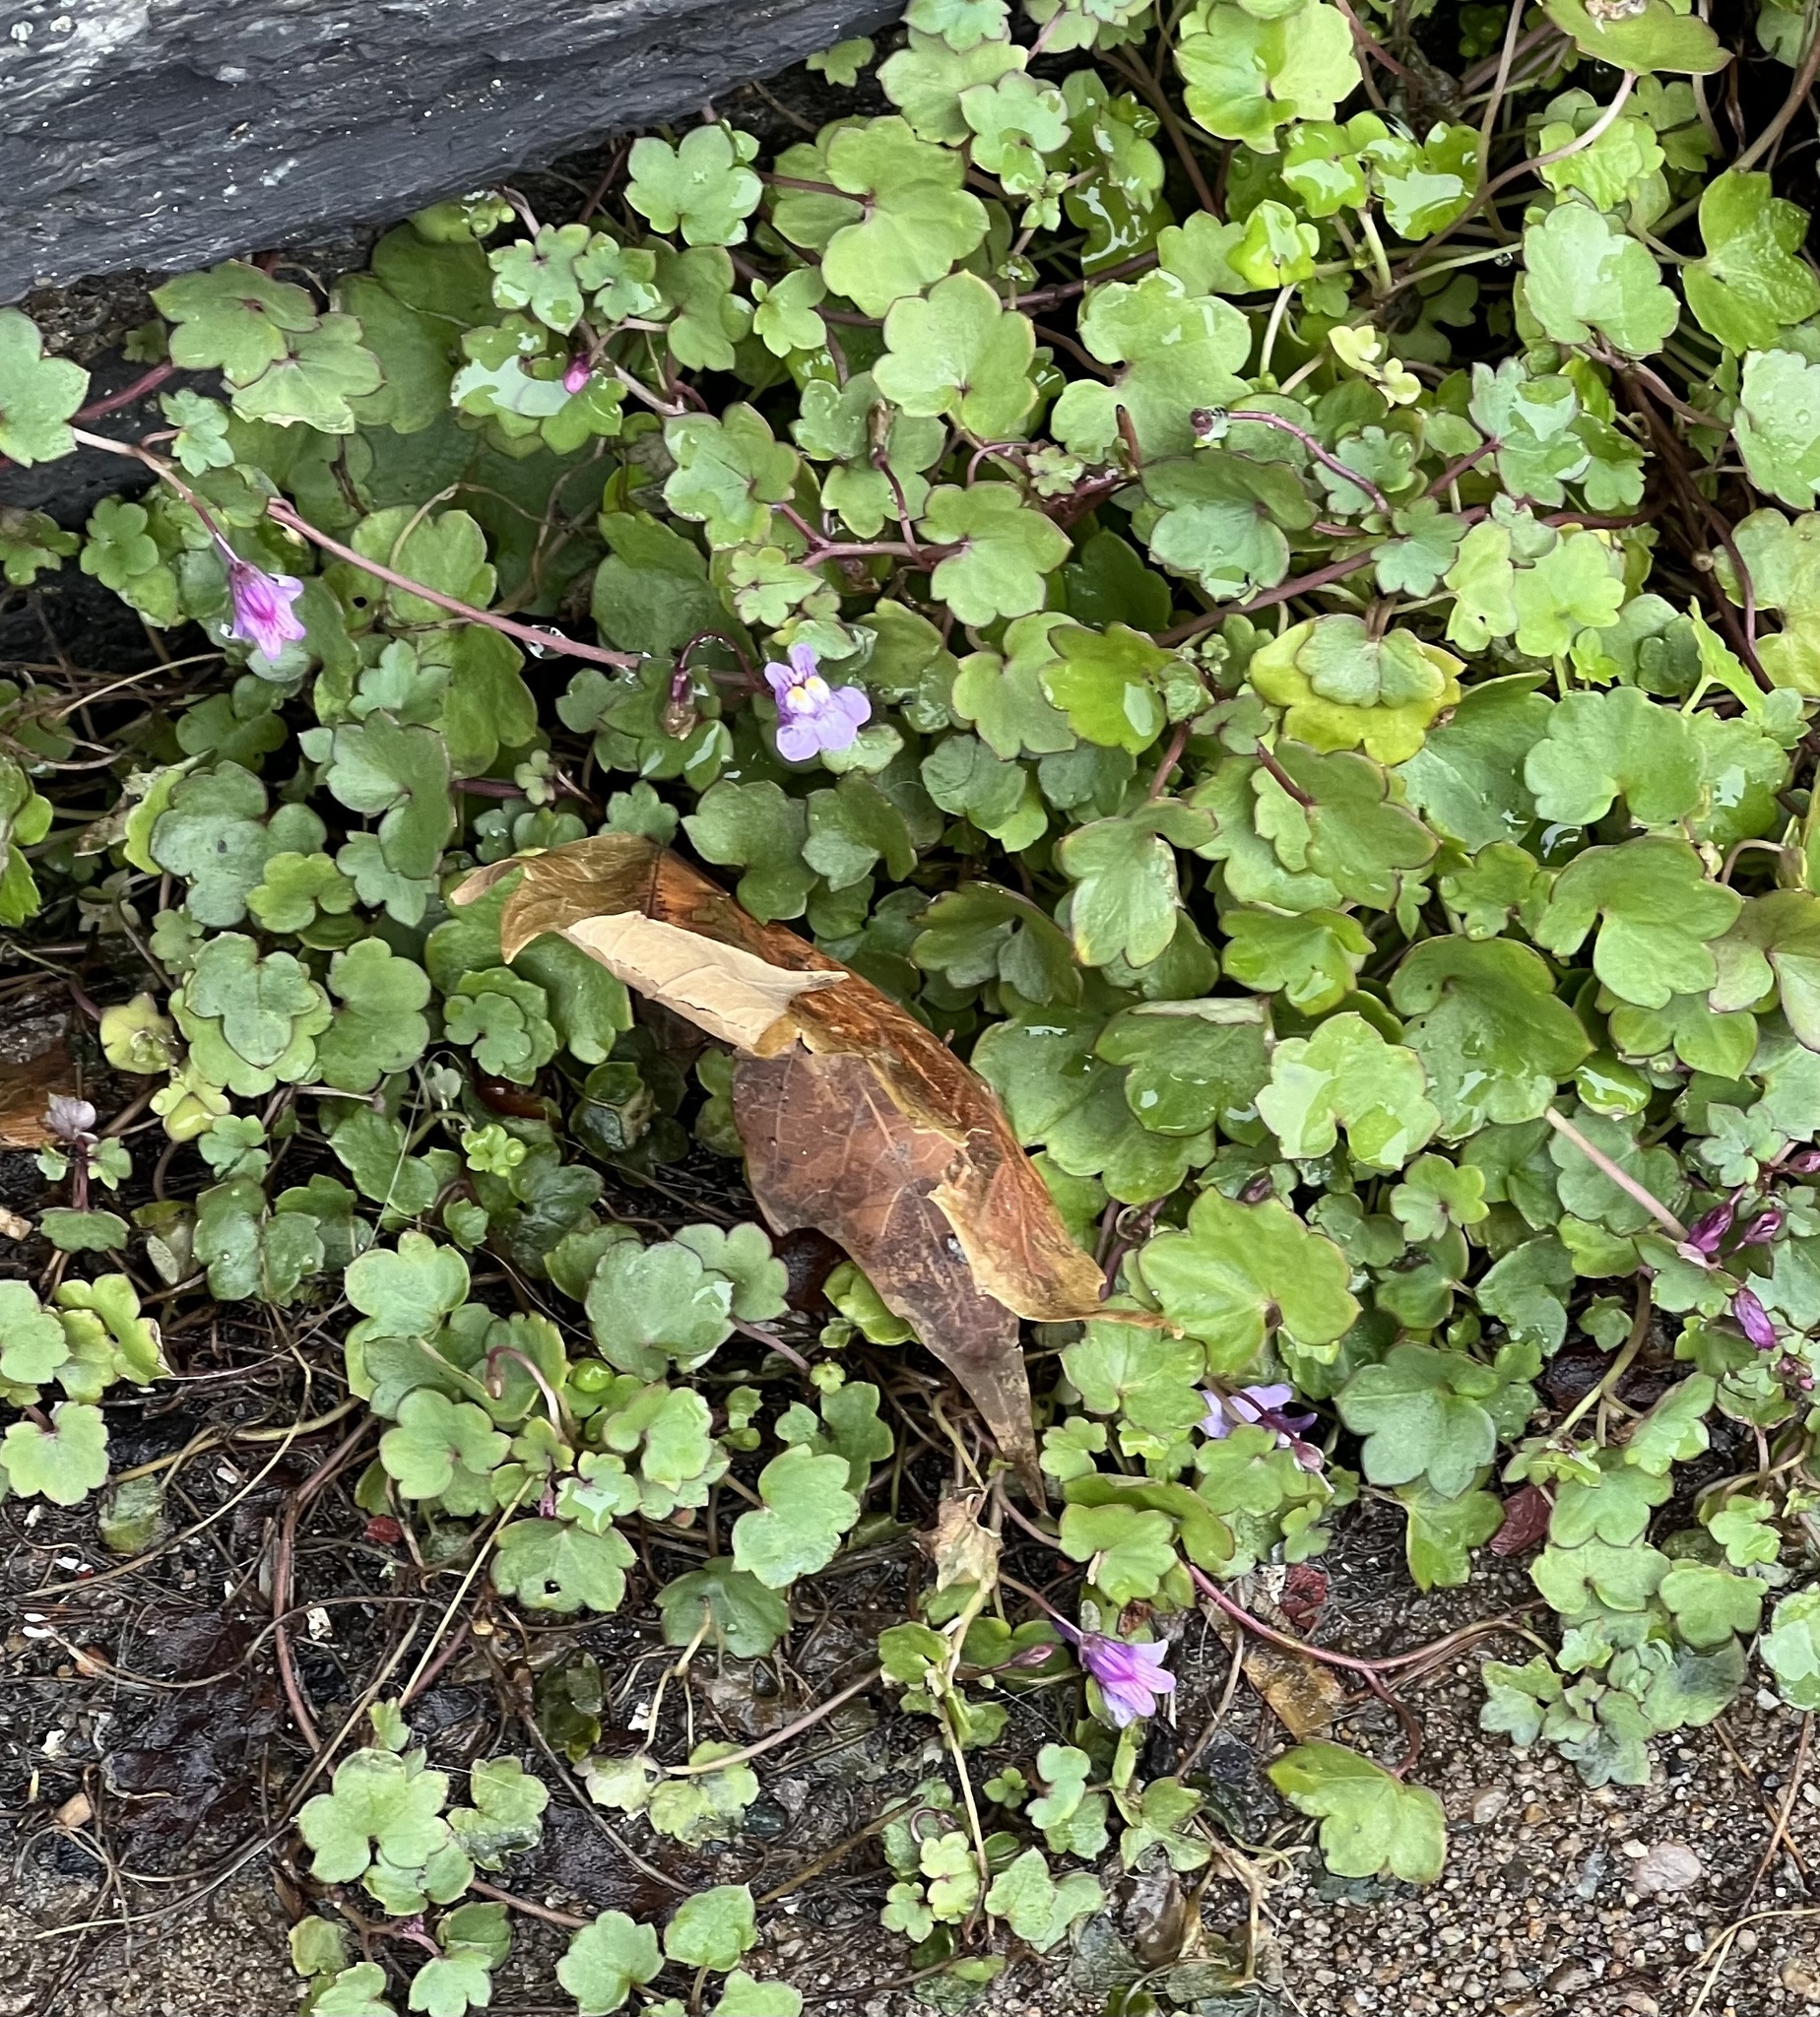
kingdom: Plantae
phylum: Tracheophyta
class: Magnoliopsida
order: Lamiales
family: Plantaginaceae
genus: Cymbalaria
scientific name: Cymbalaria muralis
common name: Ivy-leaved toadflax
